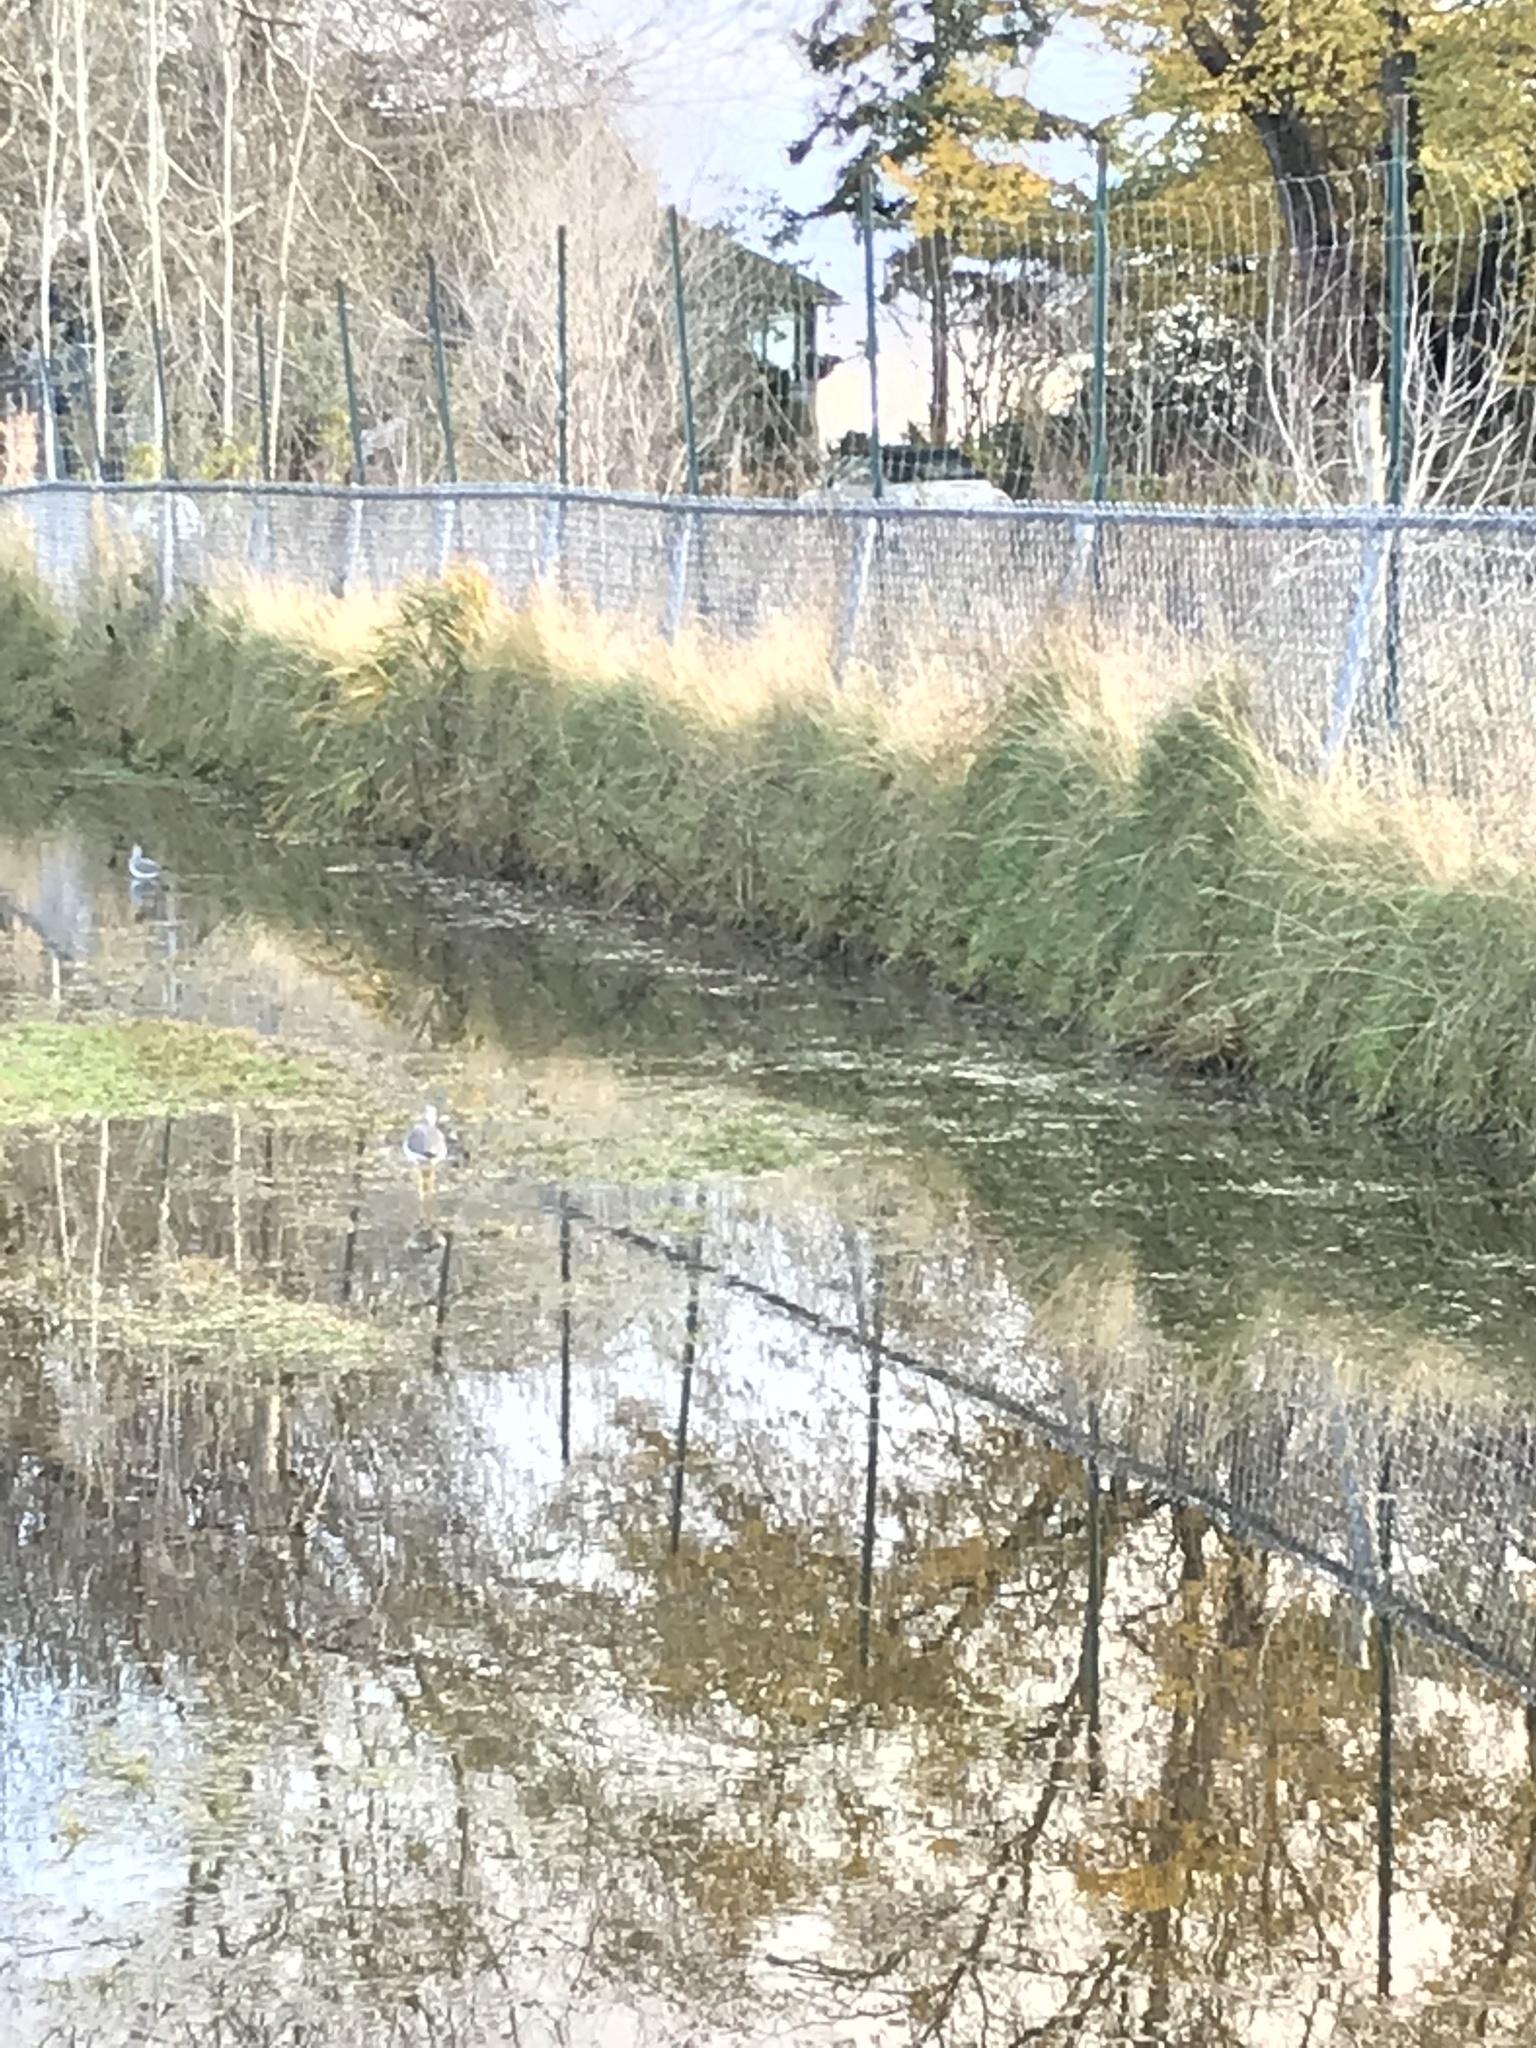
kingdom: Animalia
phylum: Chordata
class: Aves
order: Charadriiformes
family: Scolopacidae
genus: Tringa
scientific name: Tringa melanoleuca
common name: Greater yellowlegs
